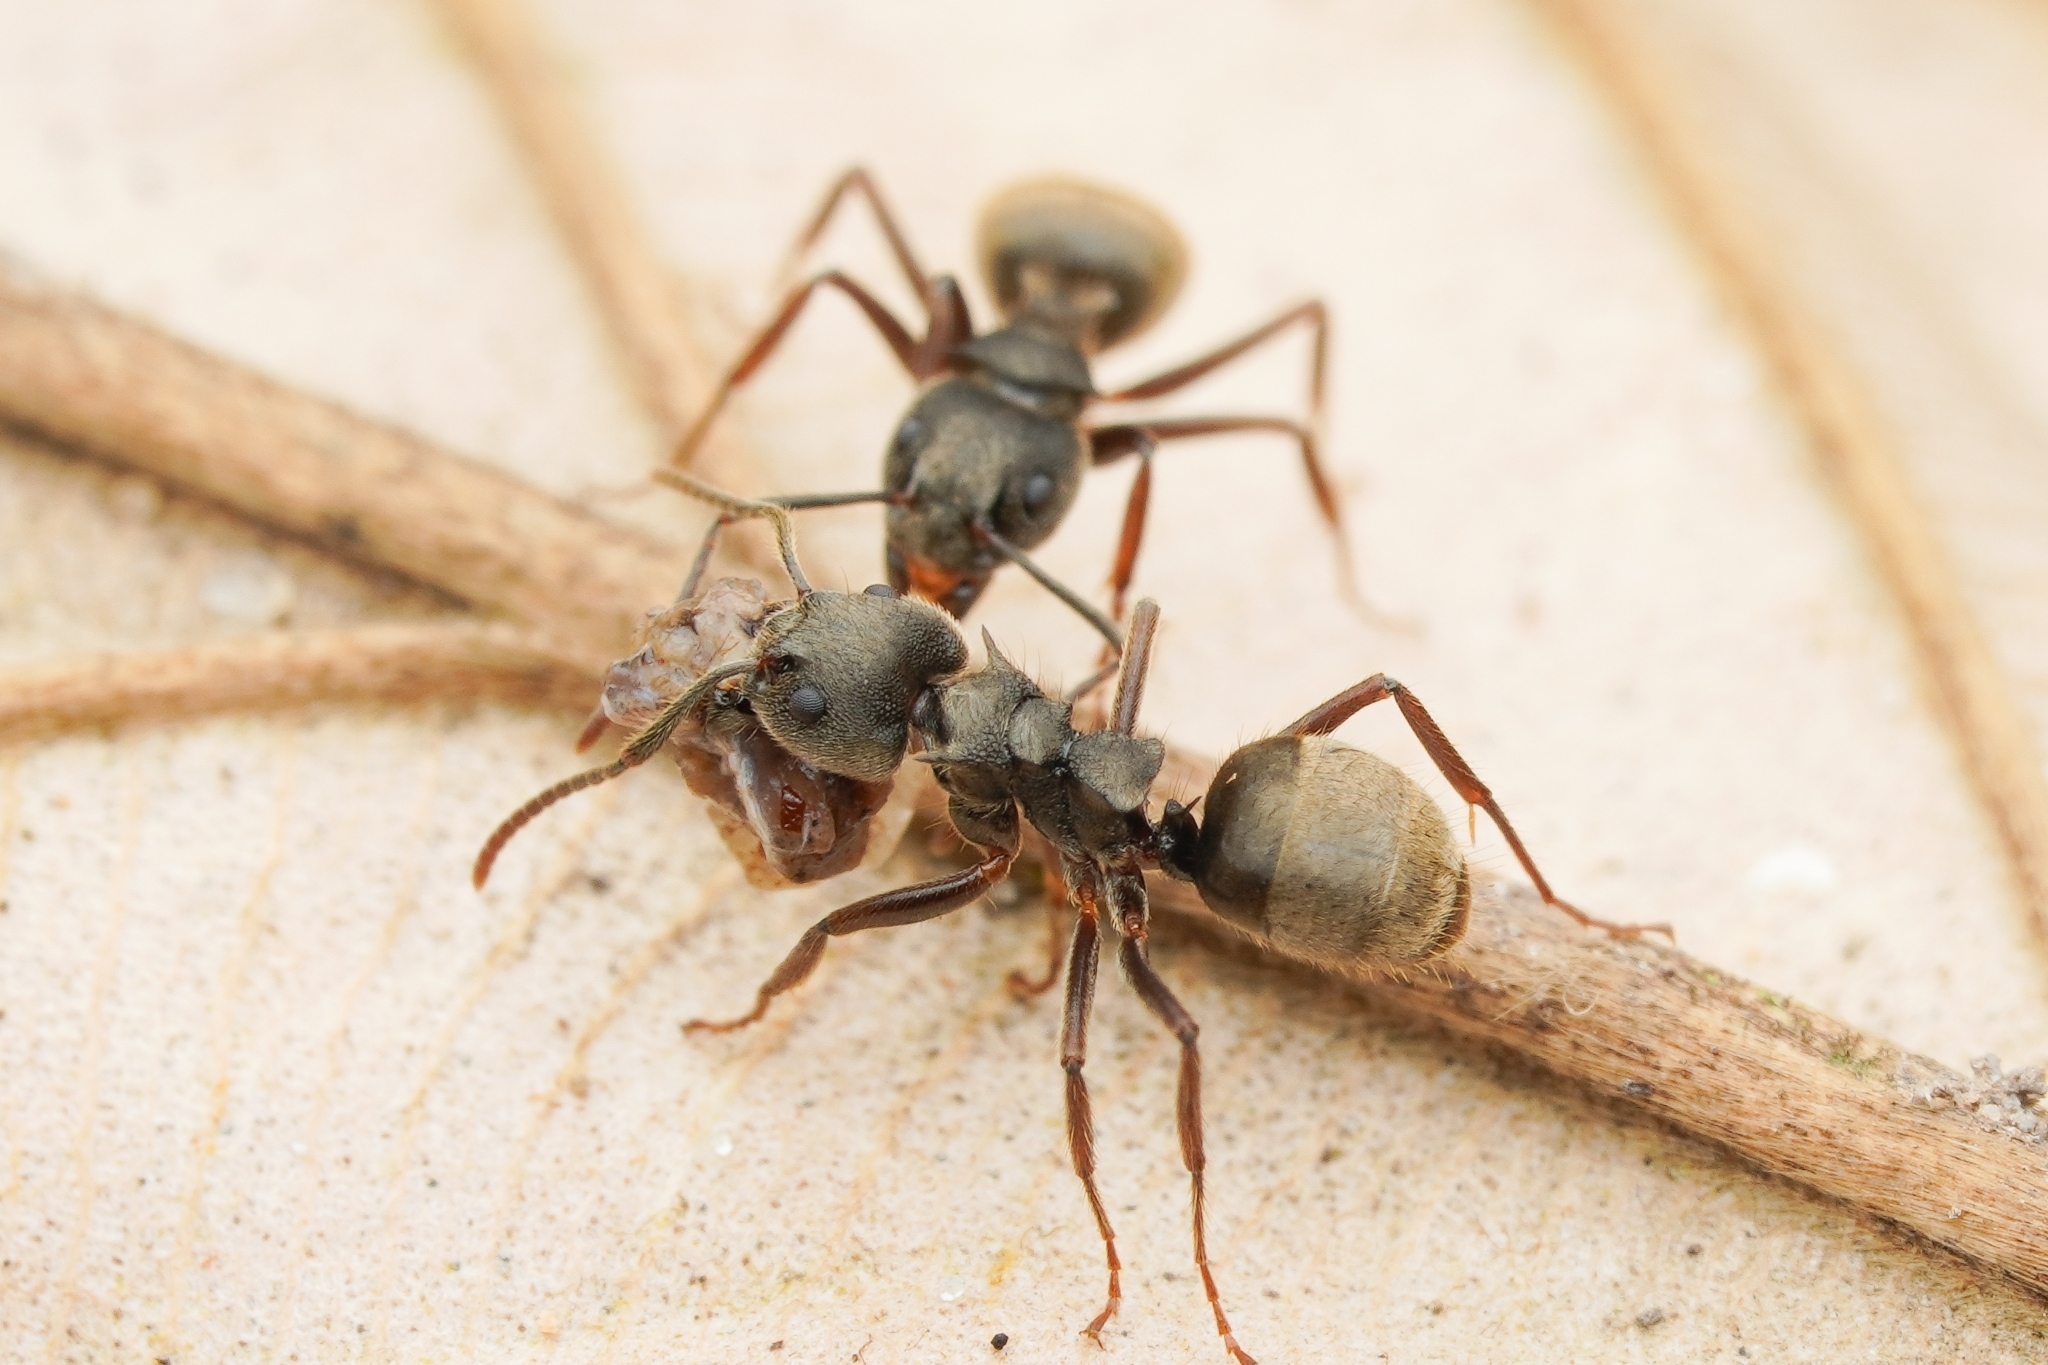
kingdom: Animalia
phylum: Arthropoda
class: Insecta
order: Hymenoptera
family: Formicidae
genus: Dolichoderus
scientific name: Dolichoderus bispinosus
